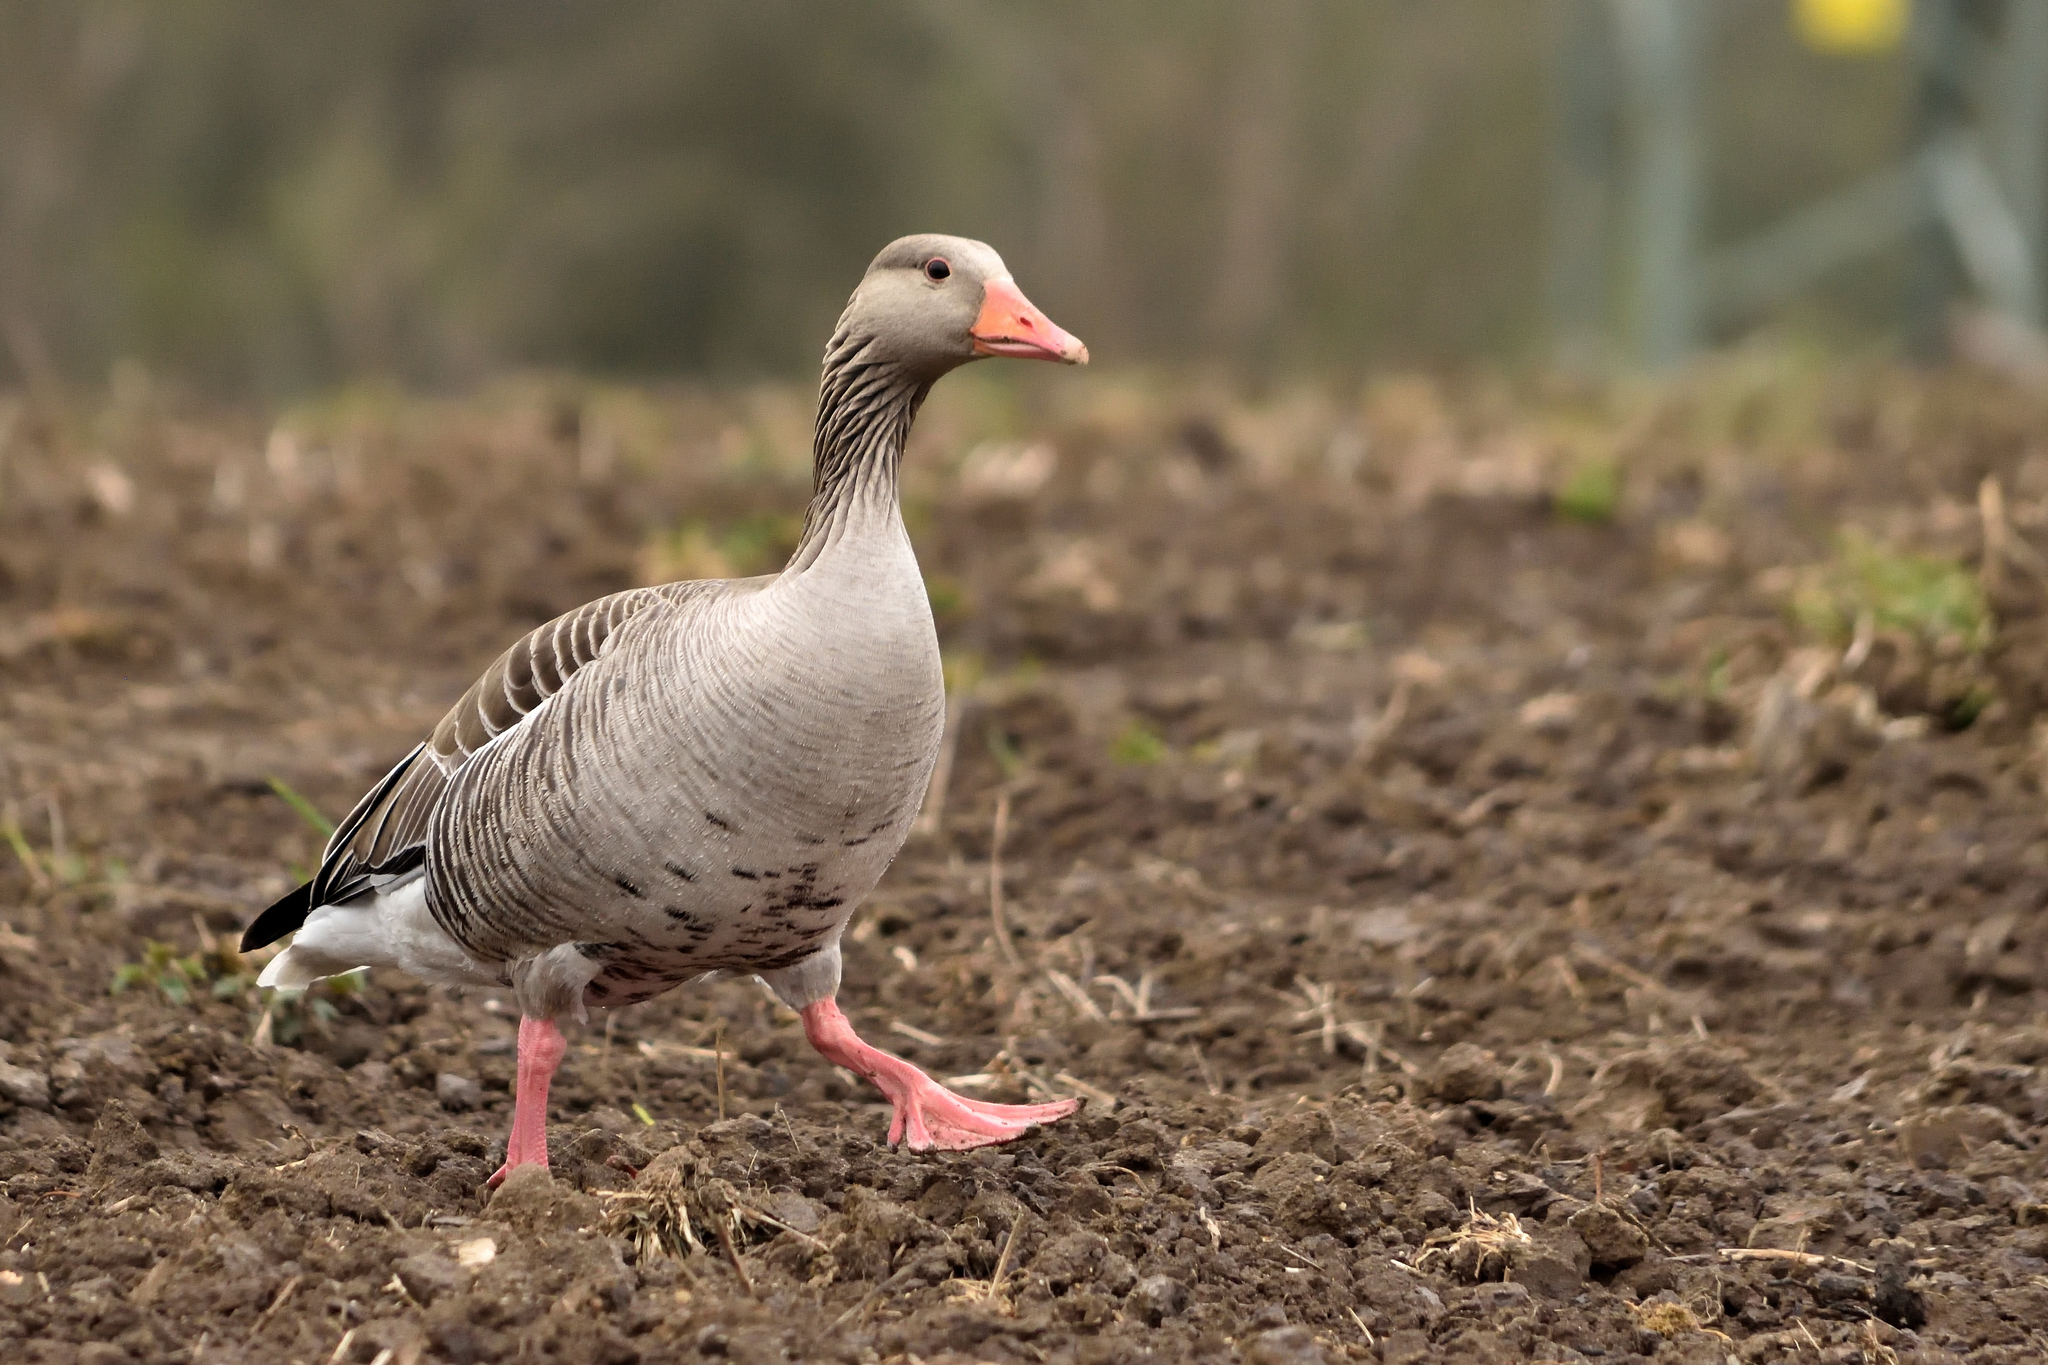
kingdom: Animalia
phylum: Chordata
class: Aves
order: Anseriformes
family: Anatidae
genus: Anser
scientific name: Anser anser
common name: Greylag goose
